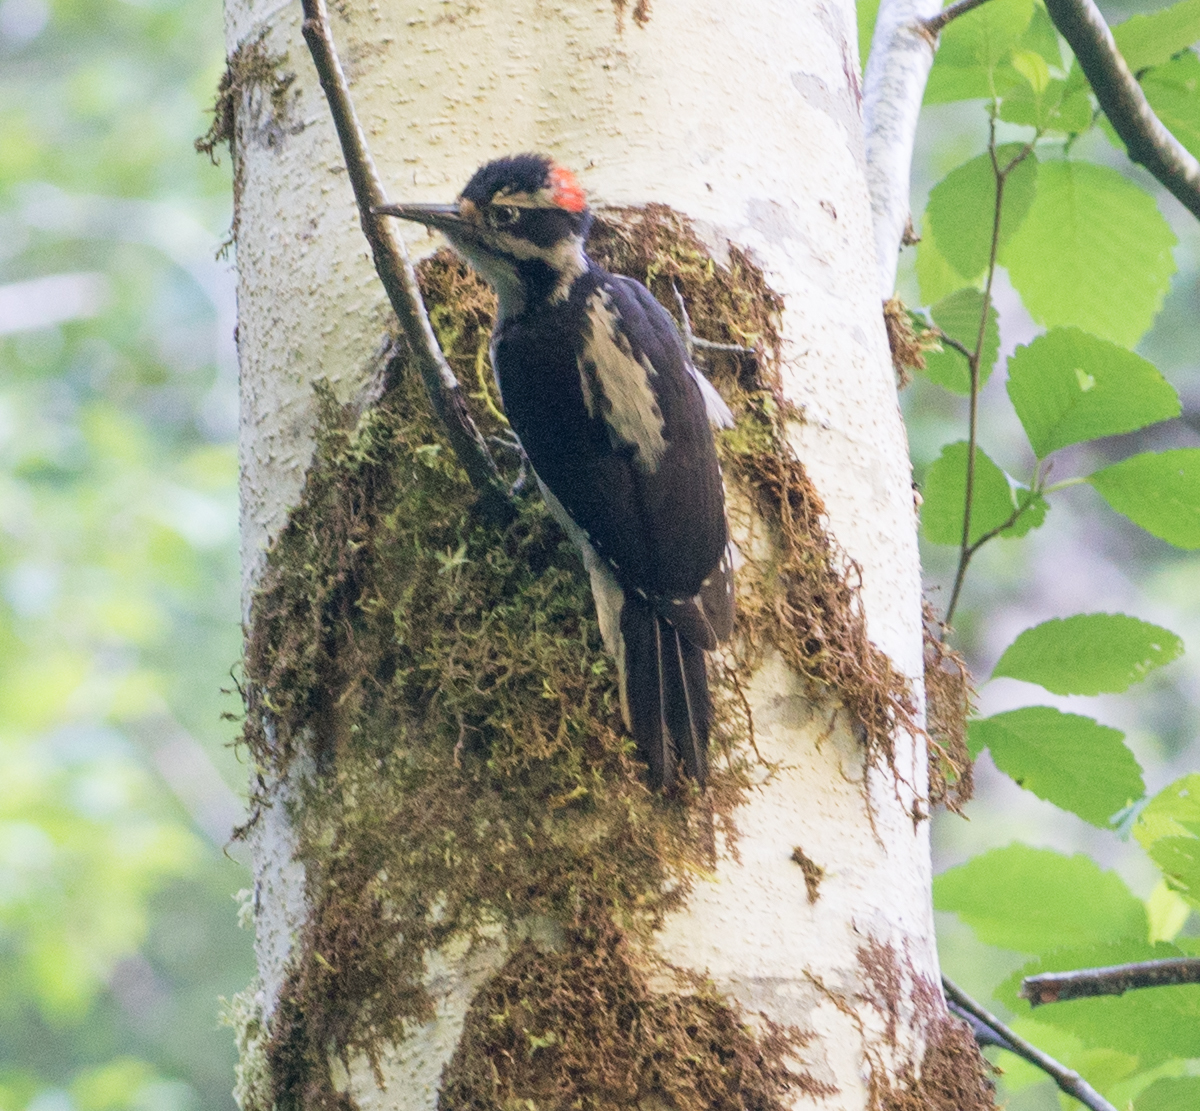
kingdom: Animalia
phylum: Chordata
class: Aves
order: Piciformes
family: Picidae
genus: Leuconotopicus
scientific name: Leuconotopicus villosus
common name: Hairy woodpecker
